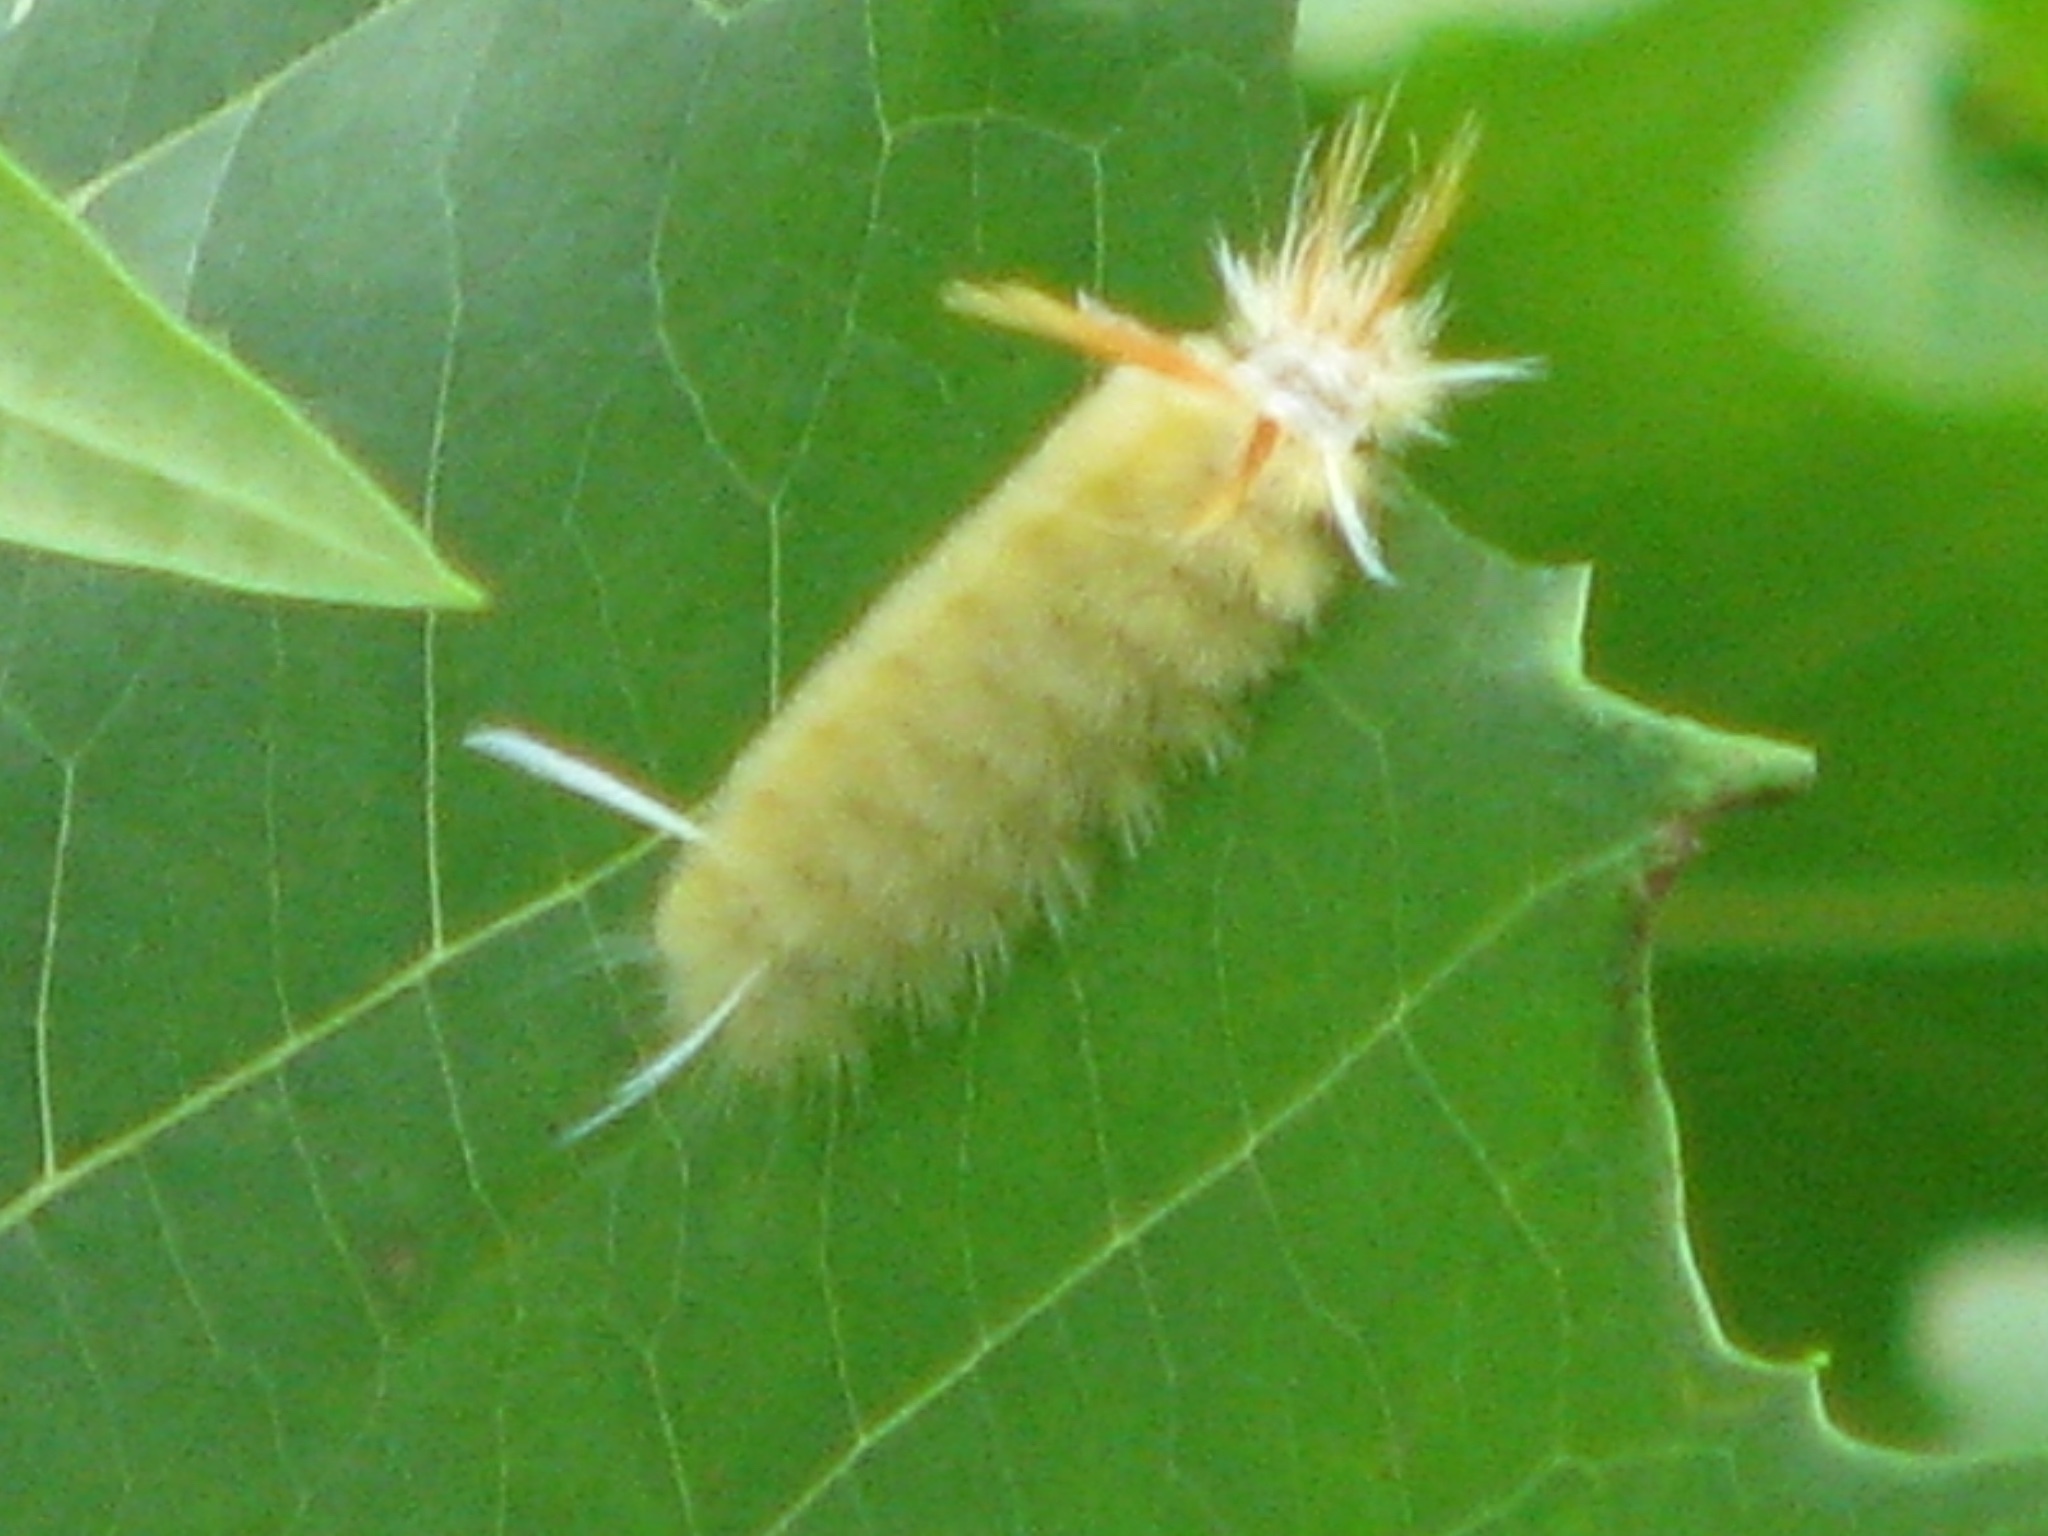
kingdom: Animalia
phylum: Arthropoda
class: Insecta
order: Lepidoptera
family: Erebidae
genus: Halysidota
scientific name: Halysidota harrisii
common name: Sycamore tussock moth
